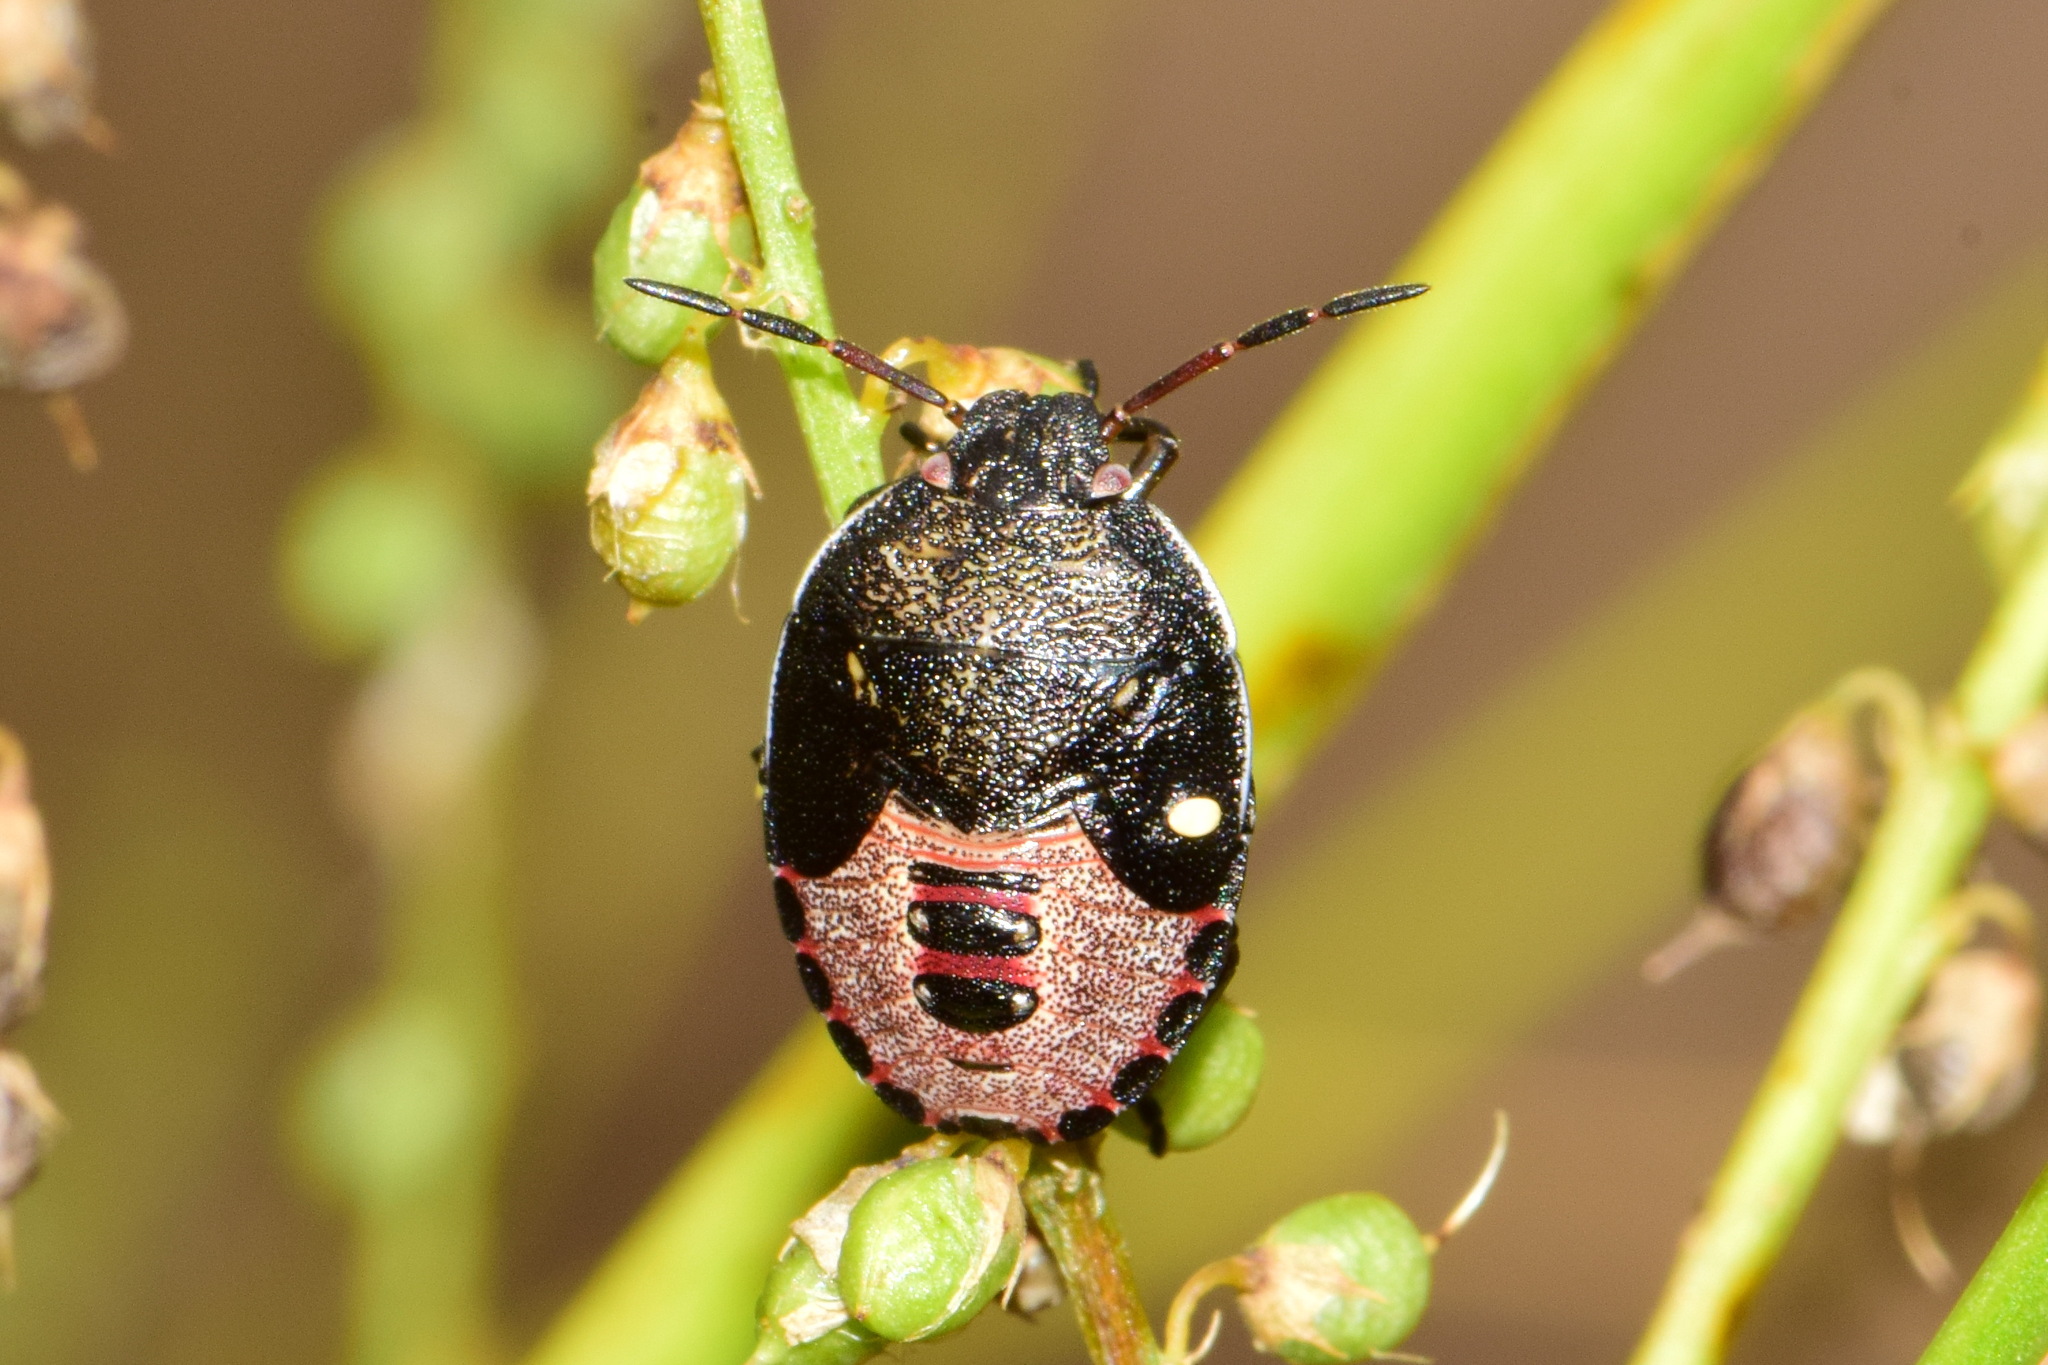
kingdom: Animalia
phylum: Arthropoda
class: Insecta
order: Hemiptera
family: Pentatomidae
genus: Piezodorus
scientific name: Piezodorus lituratus
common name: Stink bug
